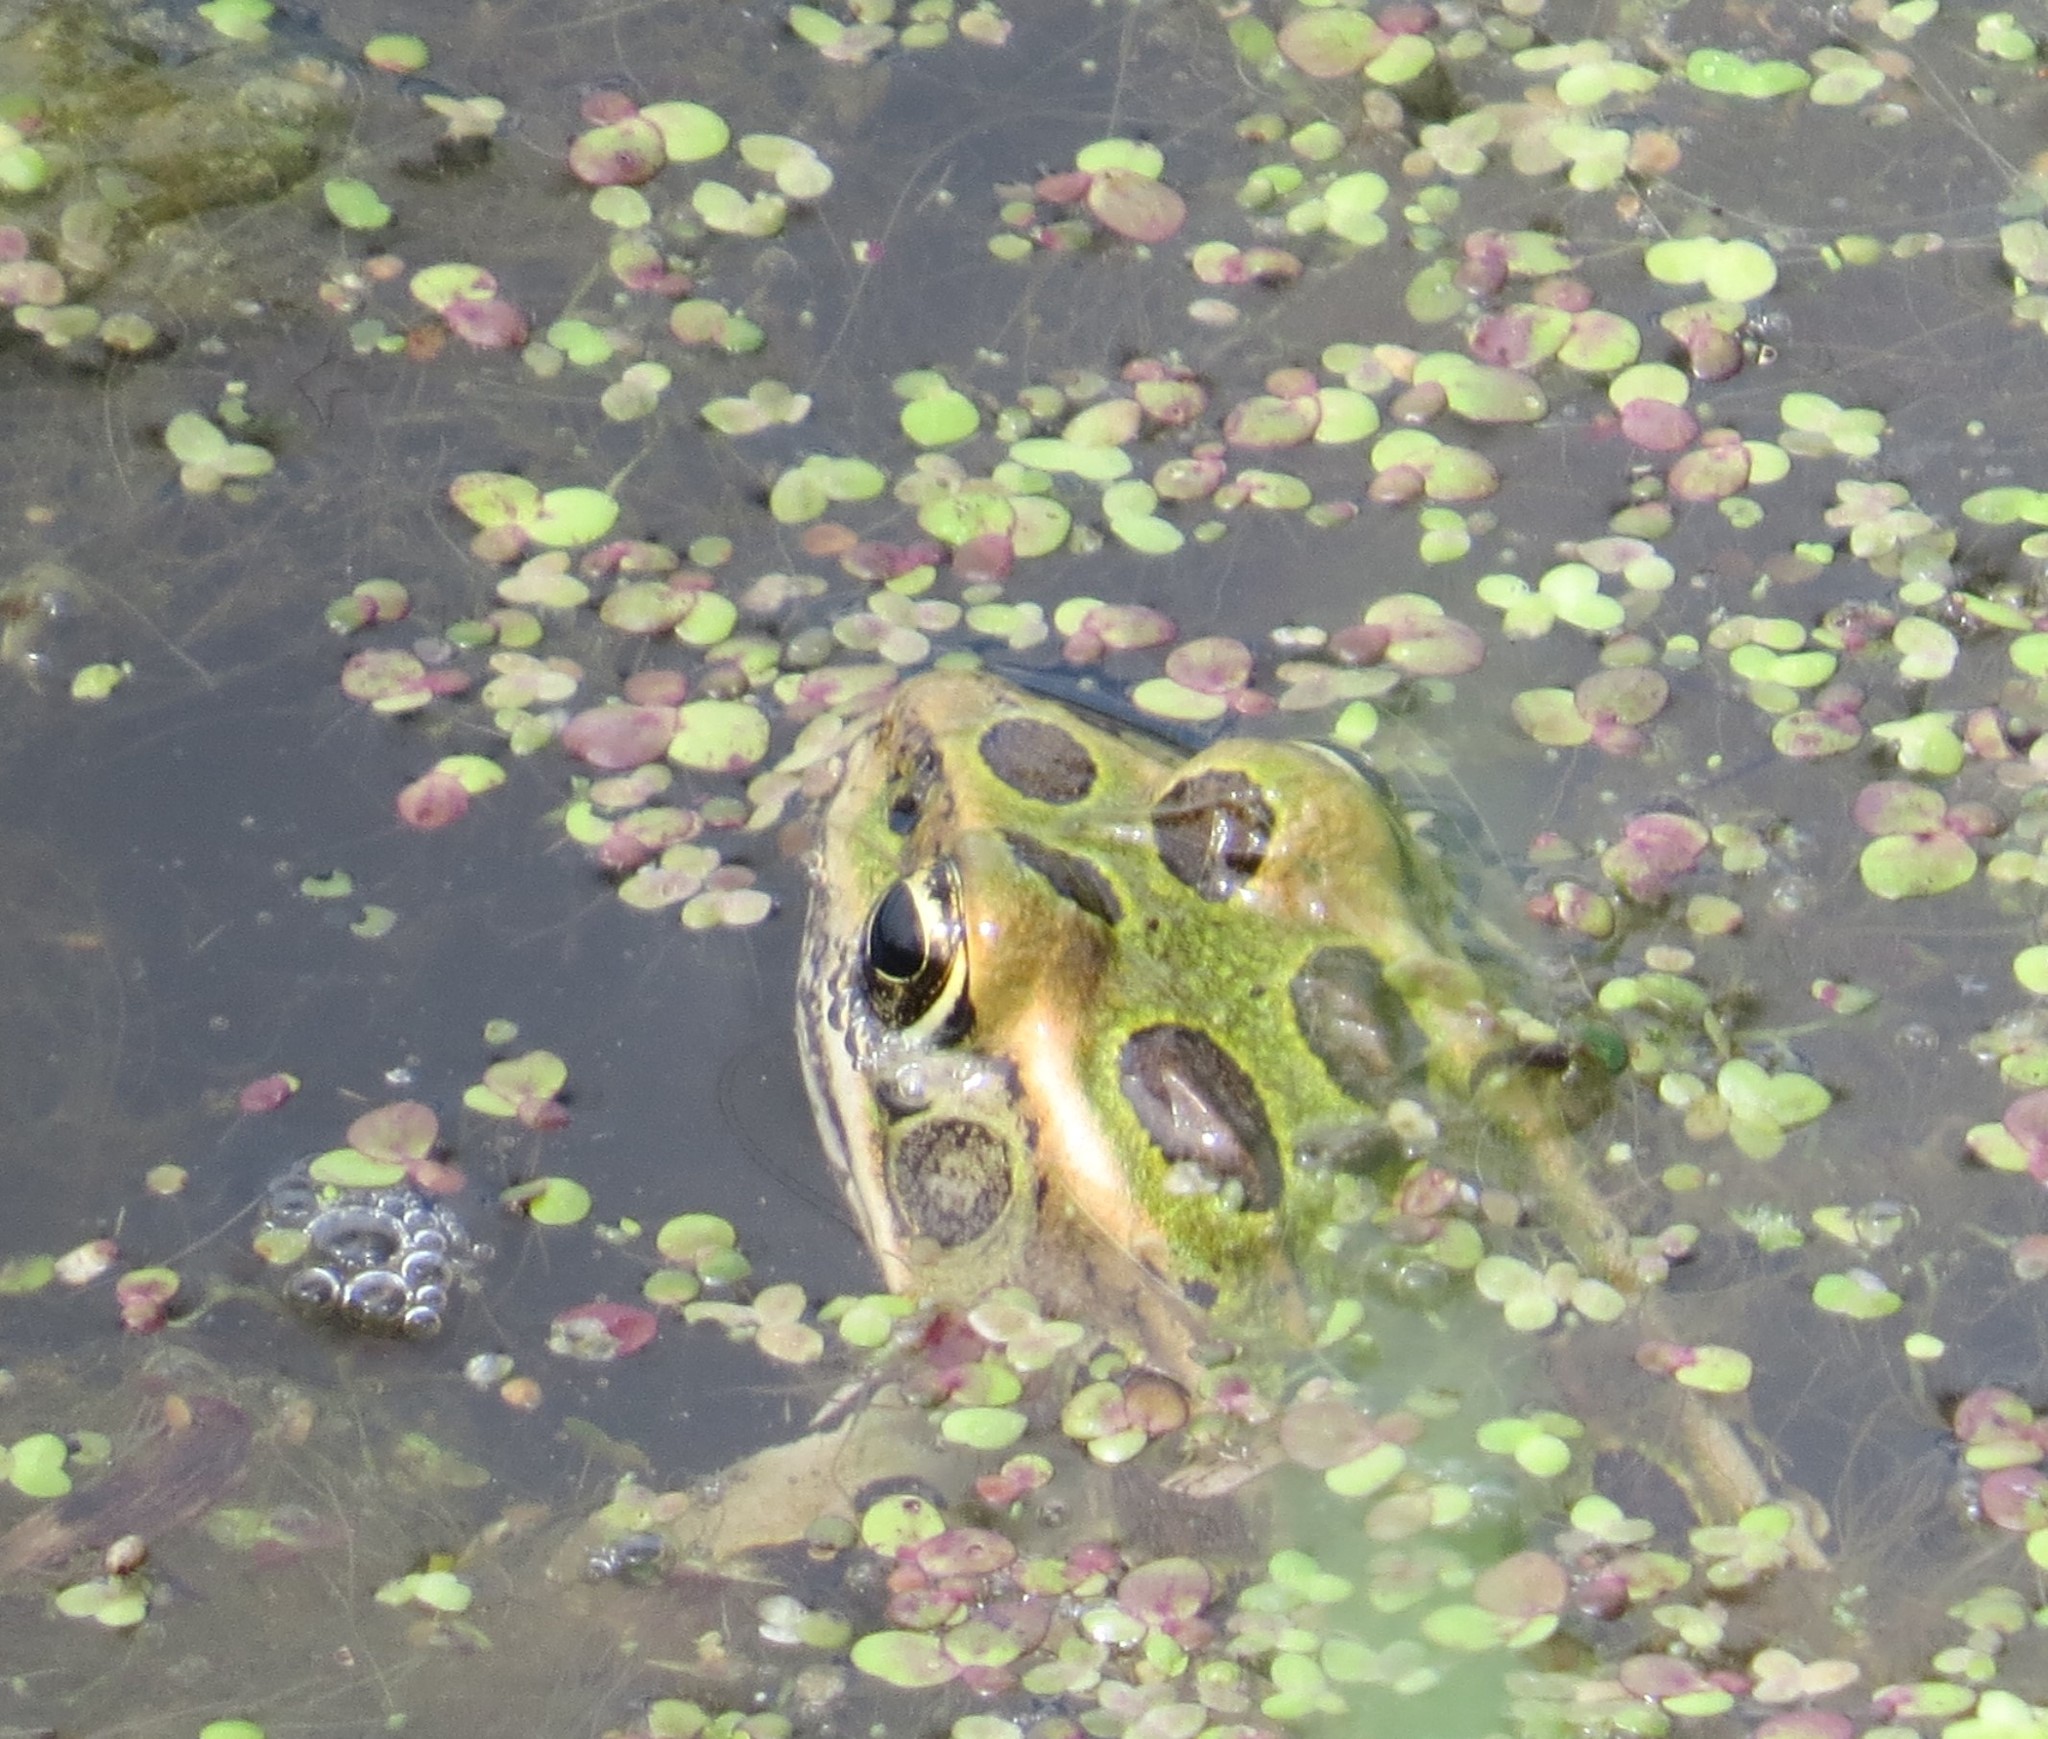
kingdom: Animalia
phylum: Chordata
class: Amphibia
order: Anura
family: Ranidae
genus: Lithobates
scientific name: Lithobates pipiens
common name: Northern leopard frog
